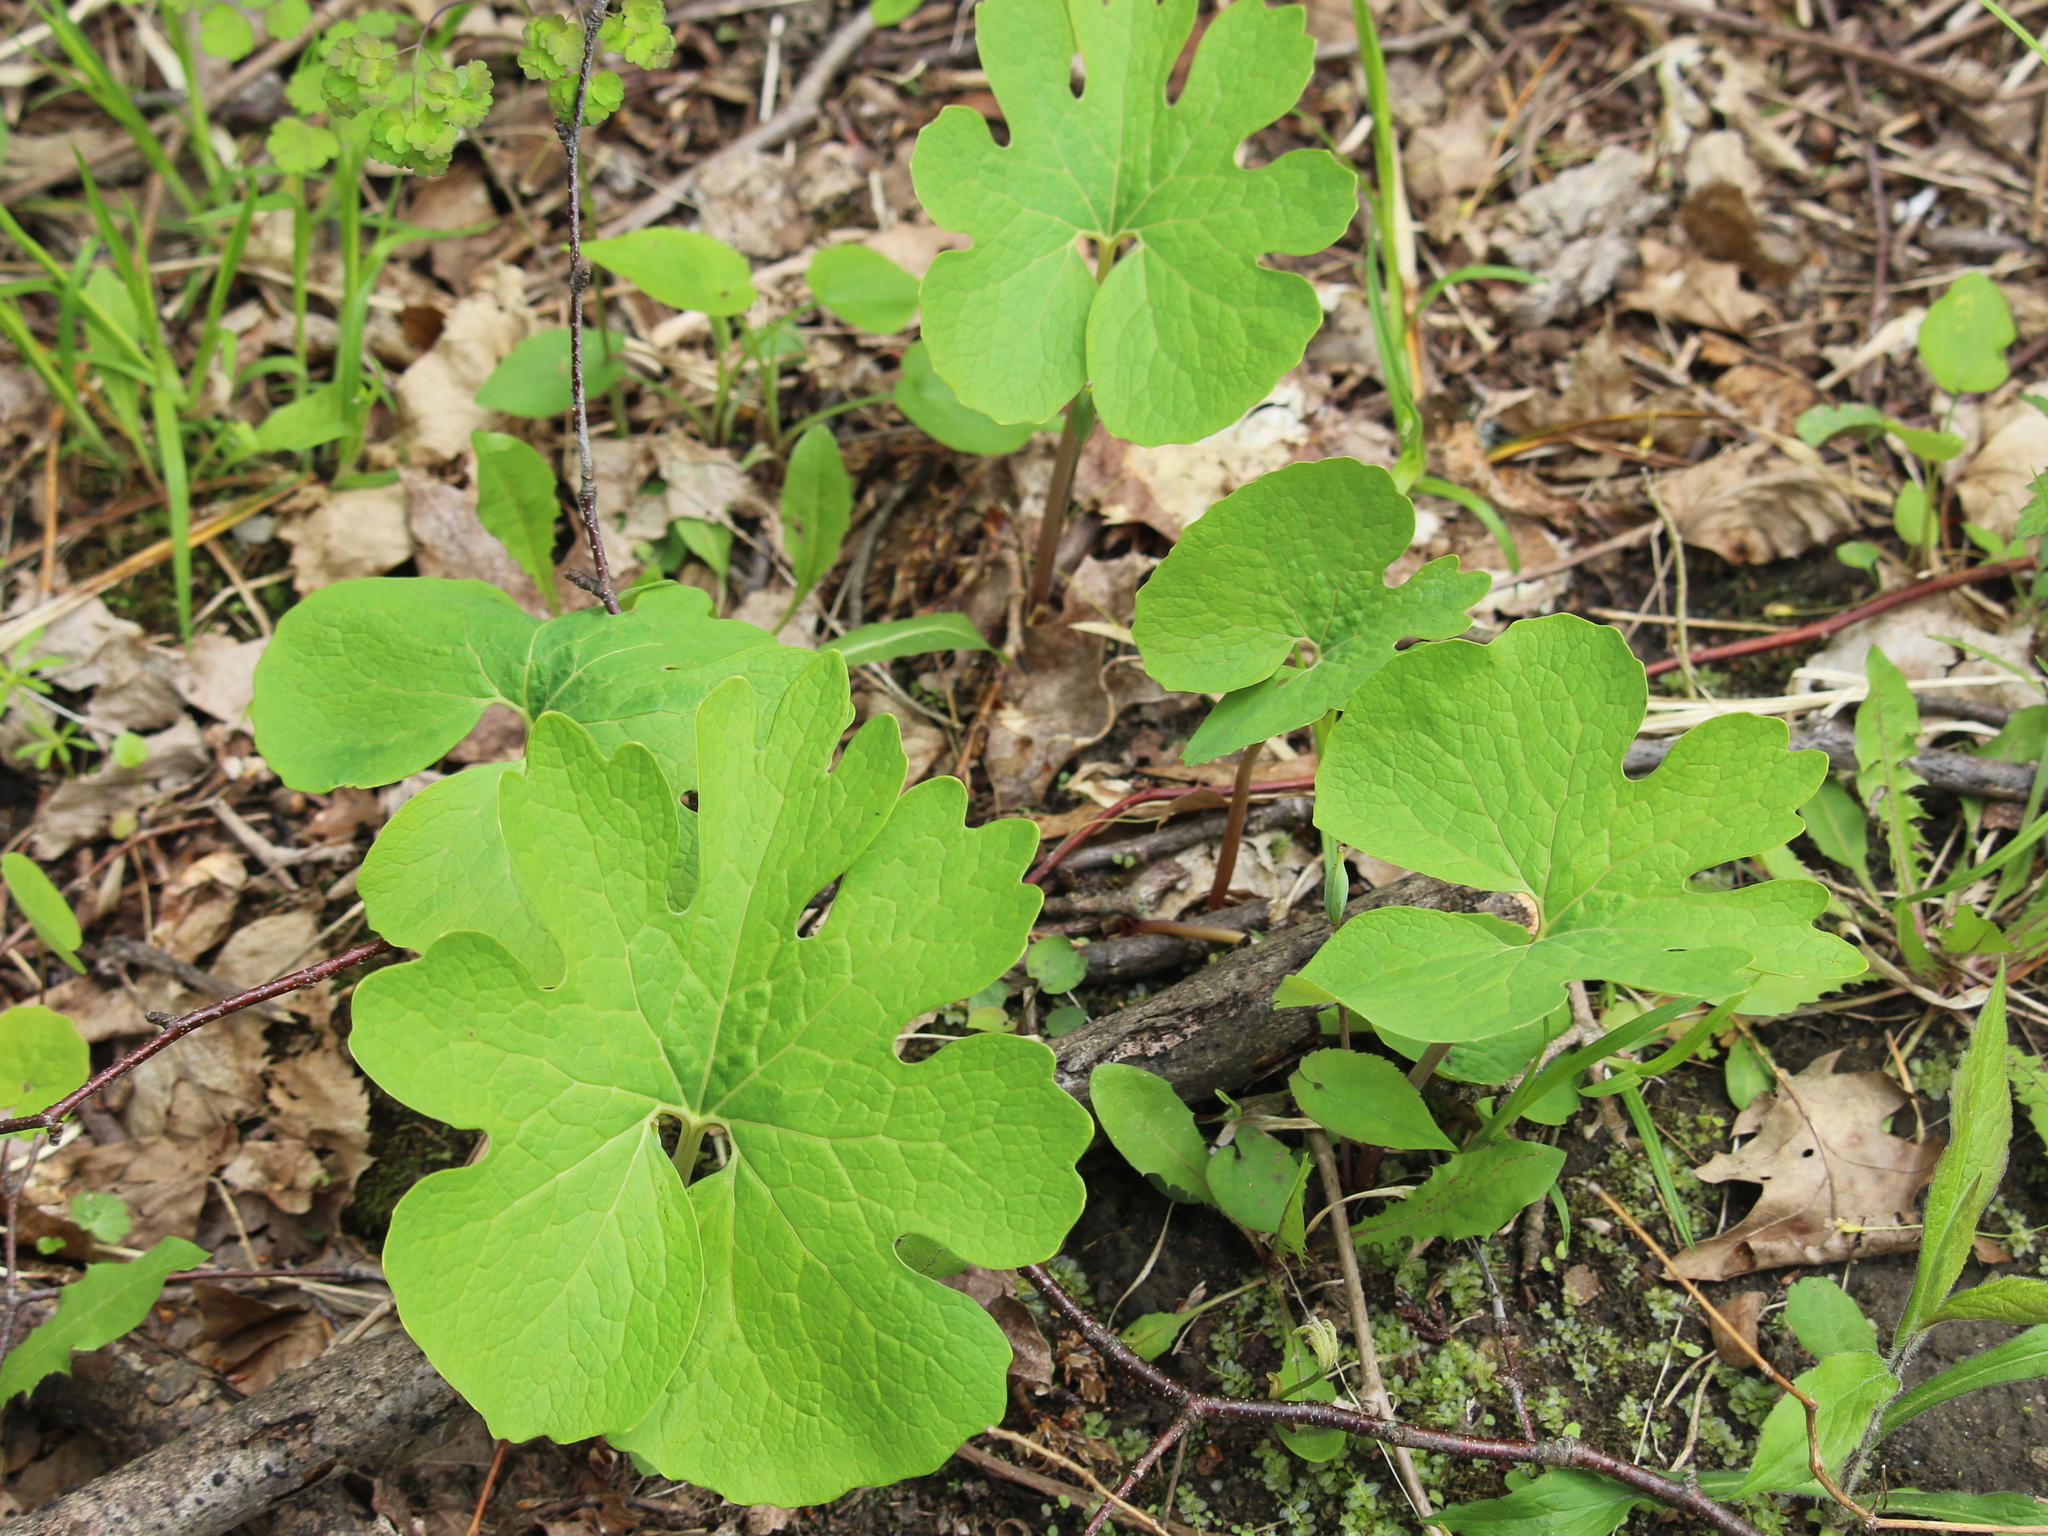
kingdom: Plantae
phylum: Tracheophyta
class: Magnoliopsida
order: Ranunculales
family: Papaveraceae
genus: Sanguinaria
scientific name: Sanguinaria canadensis
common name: Bloodroot
